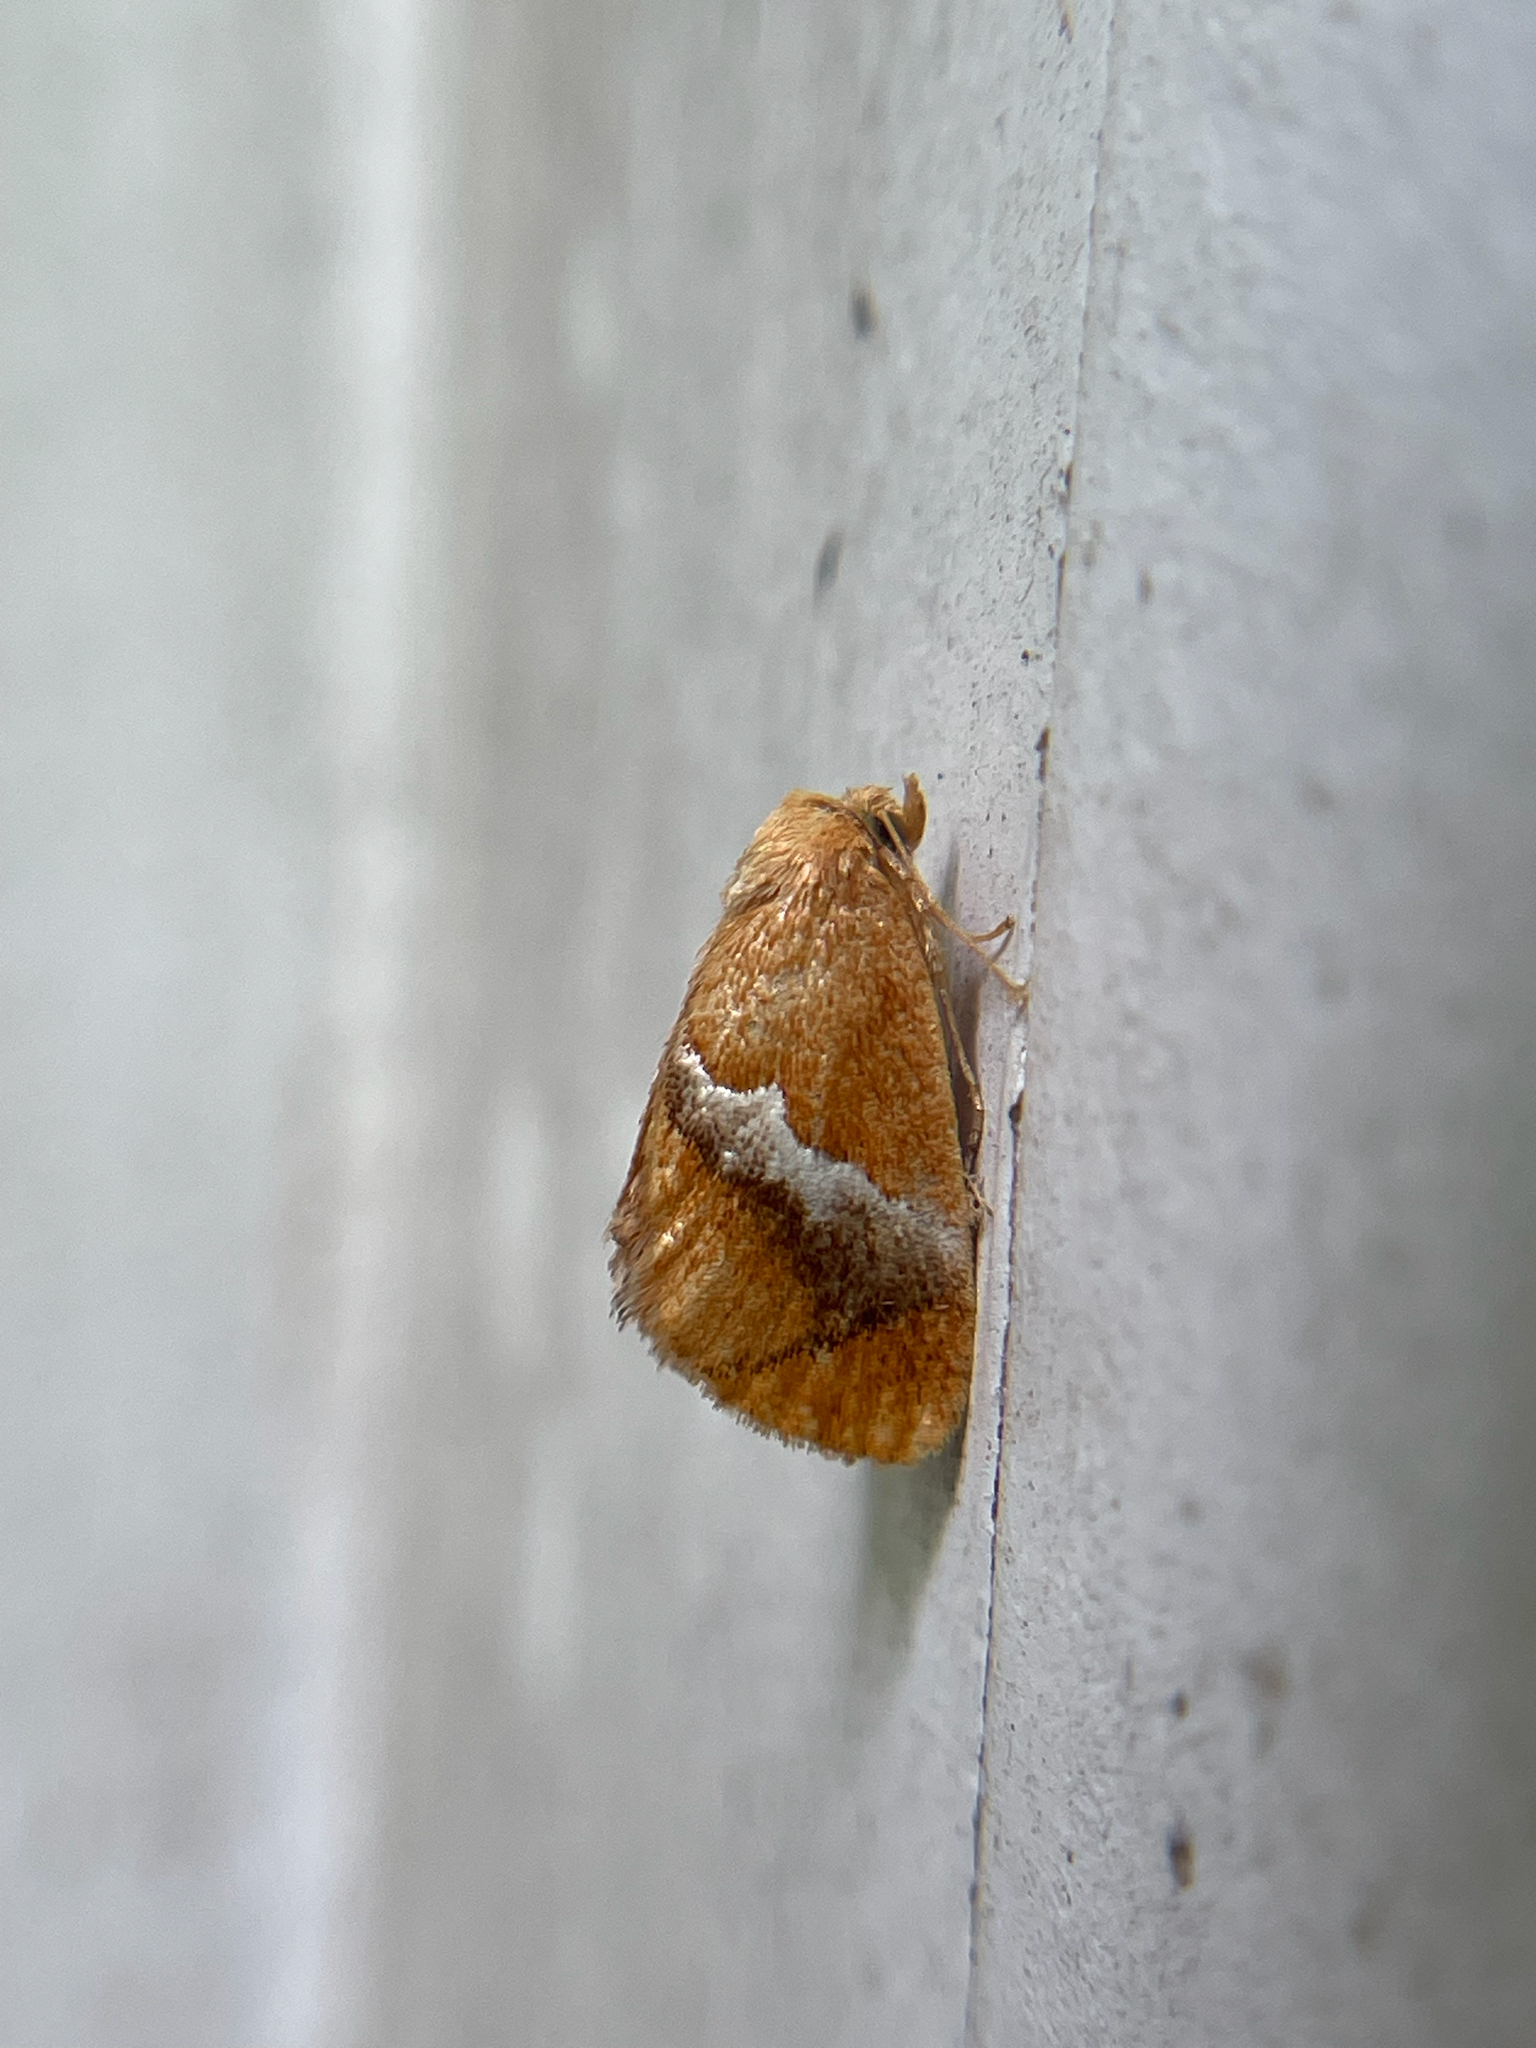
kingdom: Animalia
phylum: Arthropoda
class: Insecta
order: Lepidoptera
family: Limacodidae
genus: Lithacodes
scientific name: Lithacodes fasciola
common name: Yellow-shouldered slug moth
